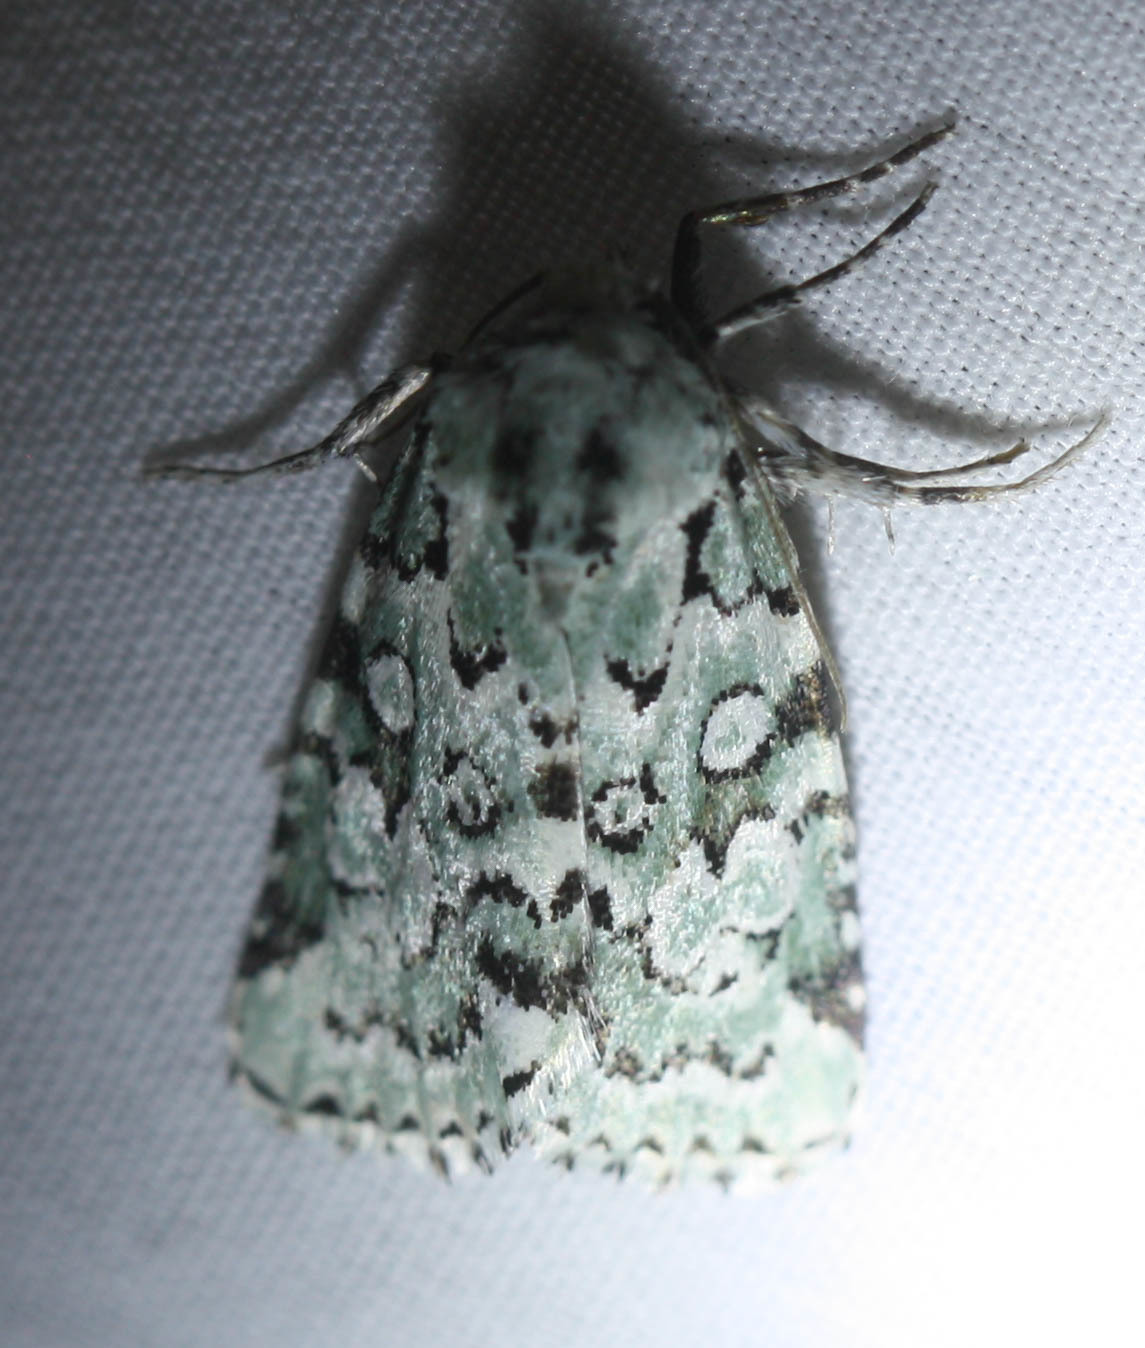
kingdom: Animalia
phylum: Arthropoda
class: Insecta
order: Lepidoptera
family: Noctuidae
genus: Bryolymnia
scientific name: Bryolymnia viridata
